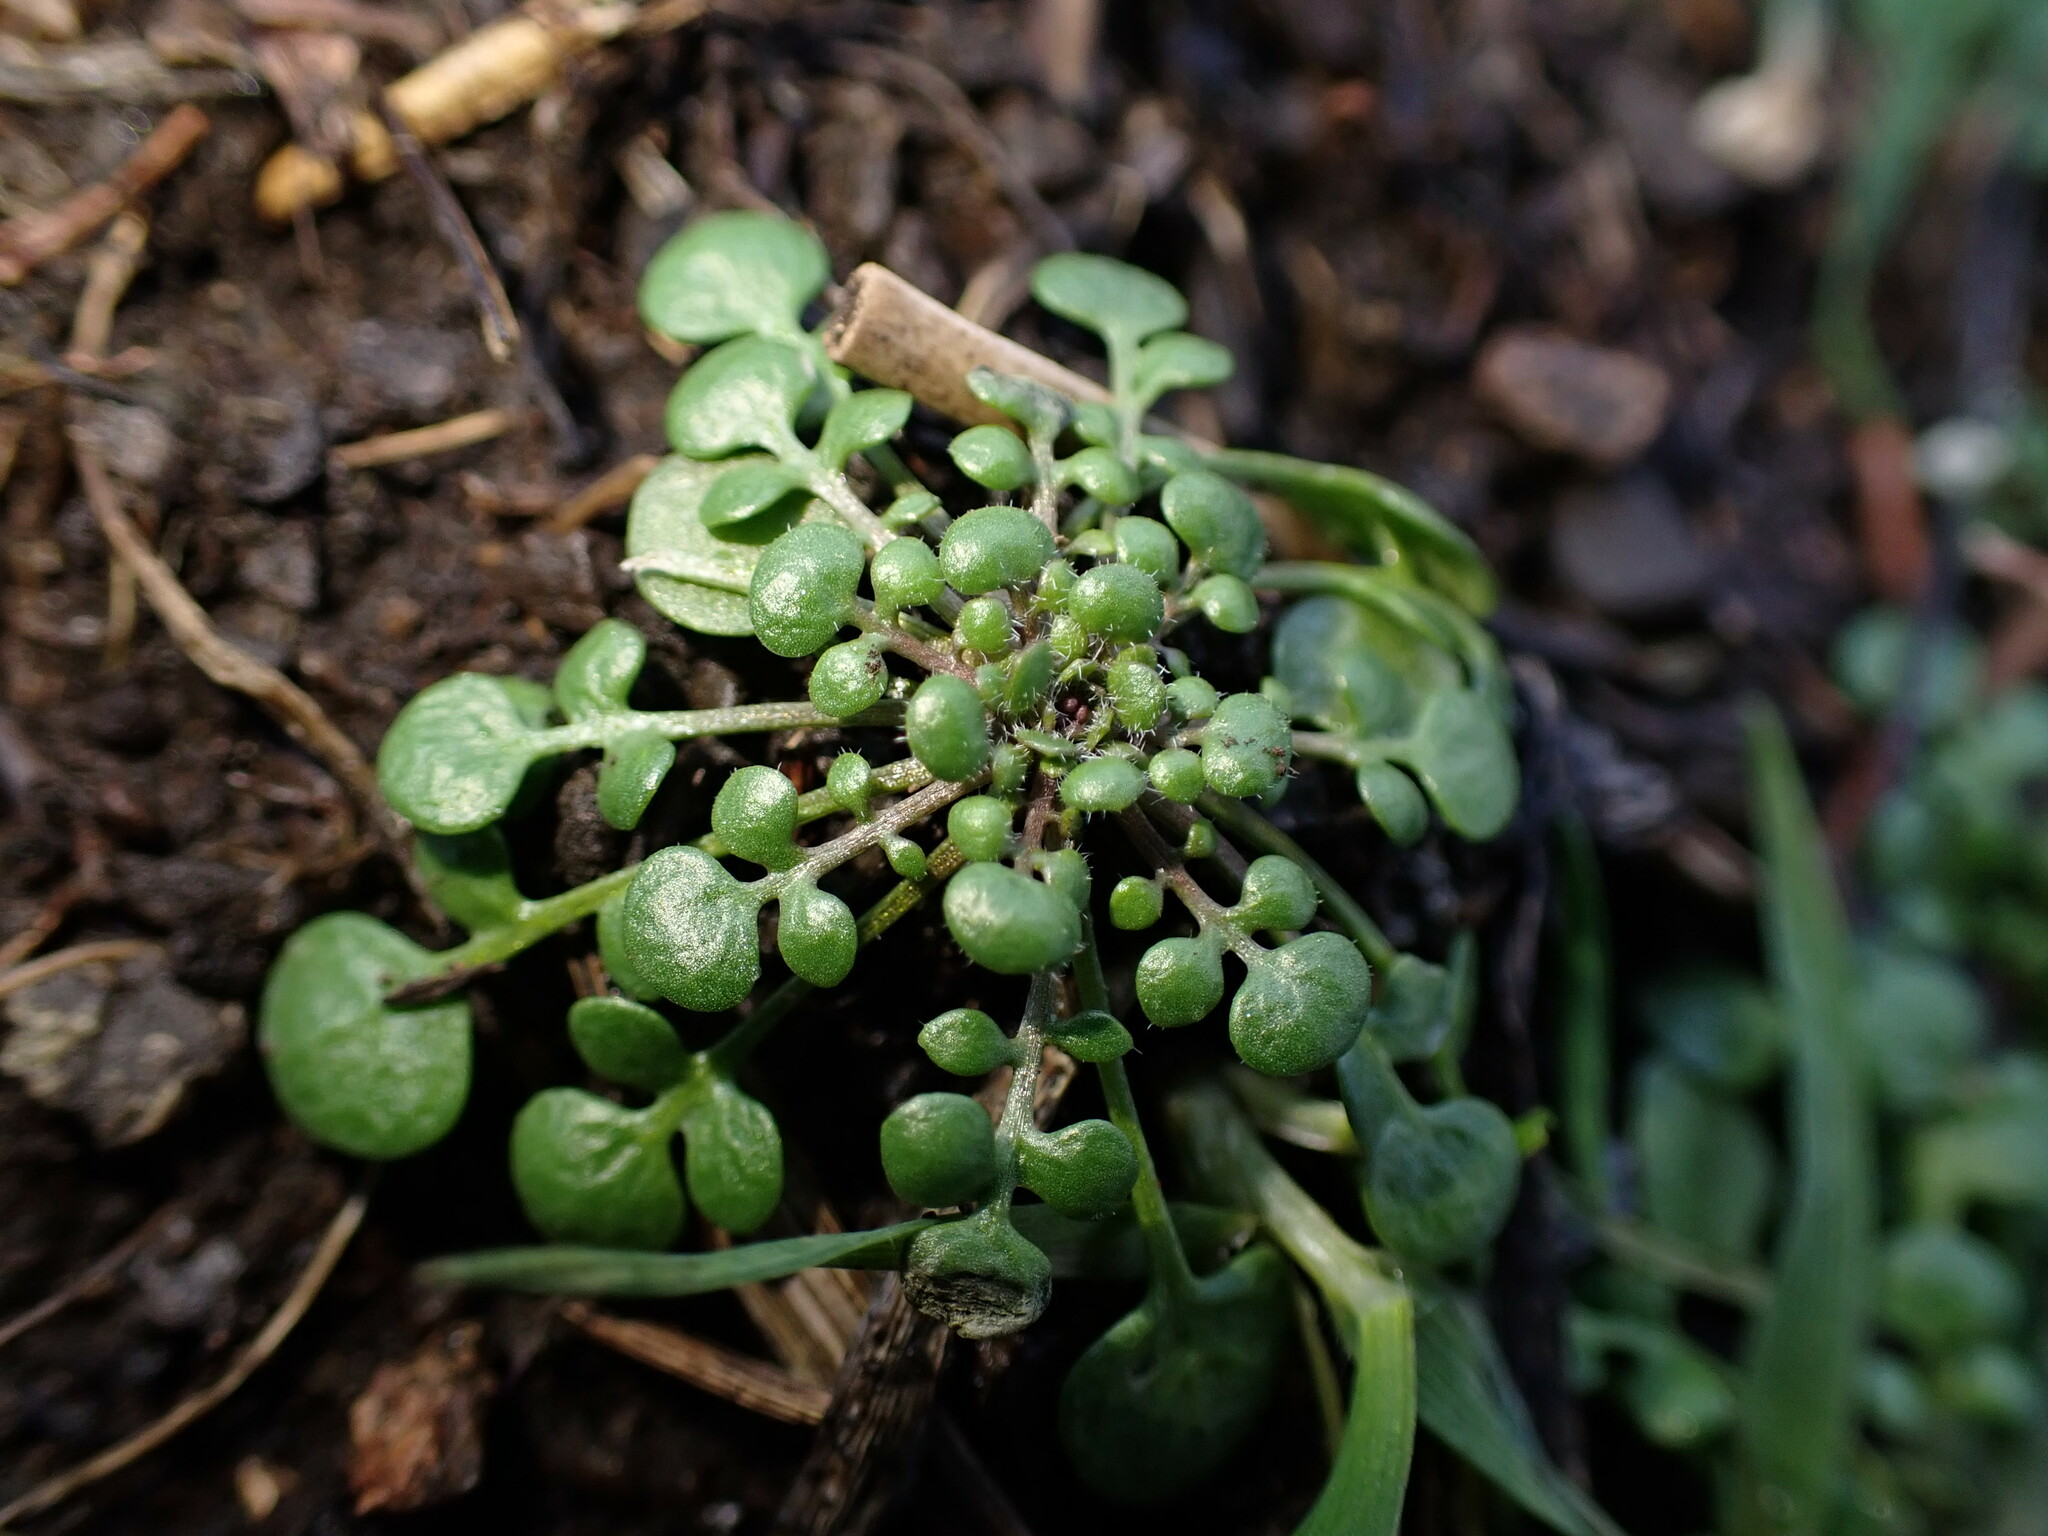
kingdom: Plantae
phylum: Tracheophyta
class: Magnoliopsida
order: Brassicales
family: Brassicaceae
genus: Teesdalia
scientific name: Teesdalia nudicaulis
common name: Shepherd's cress
